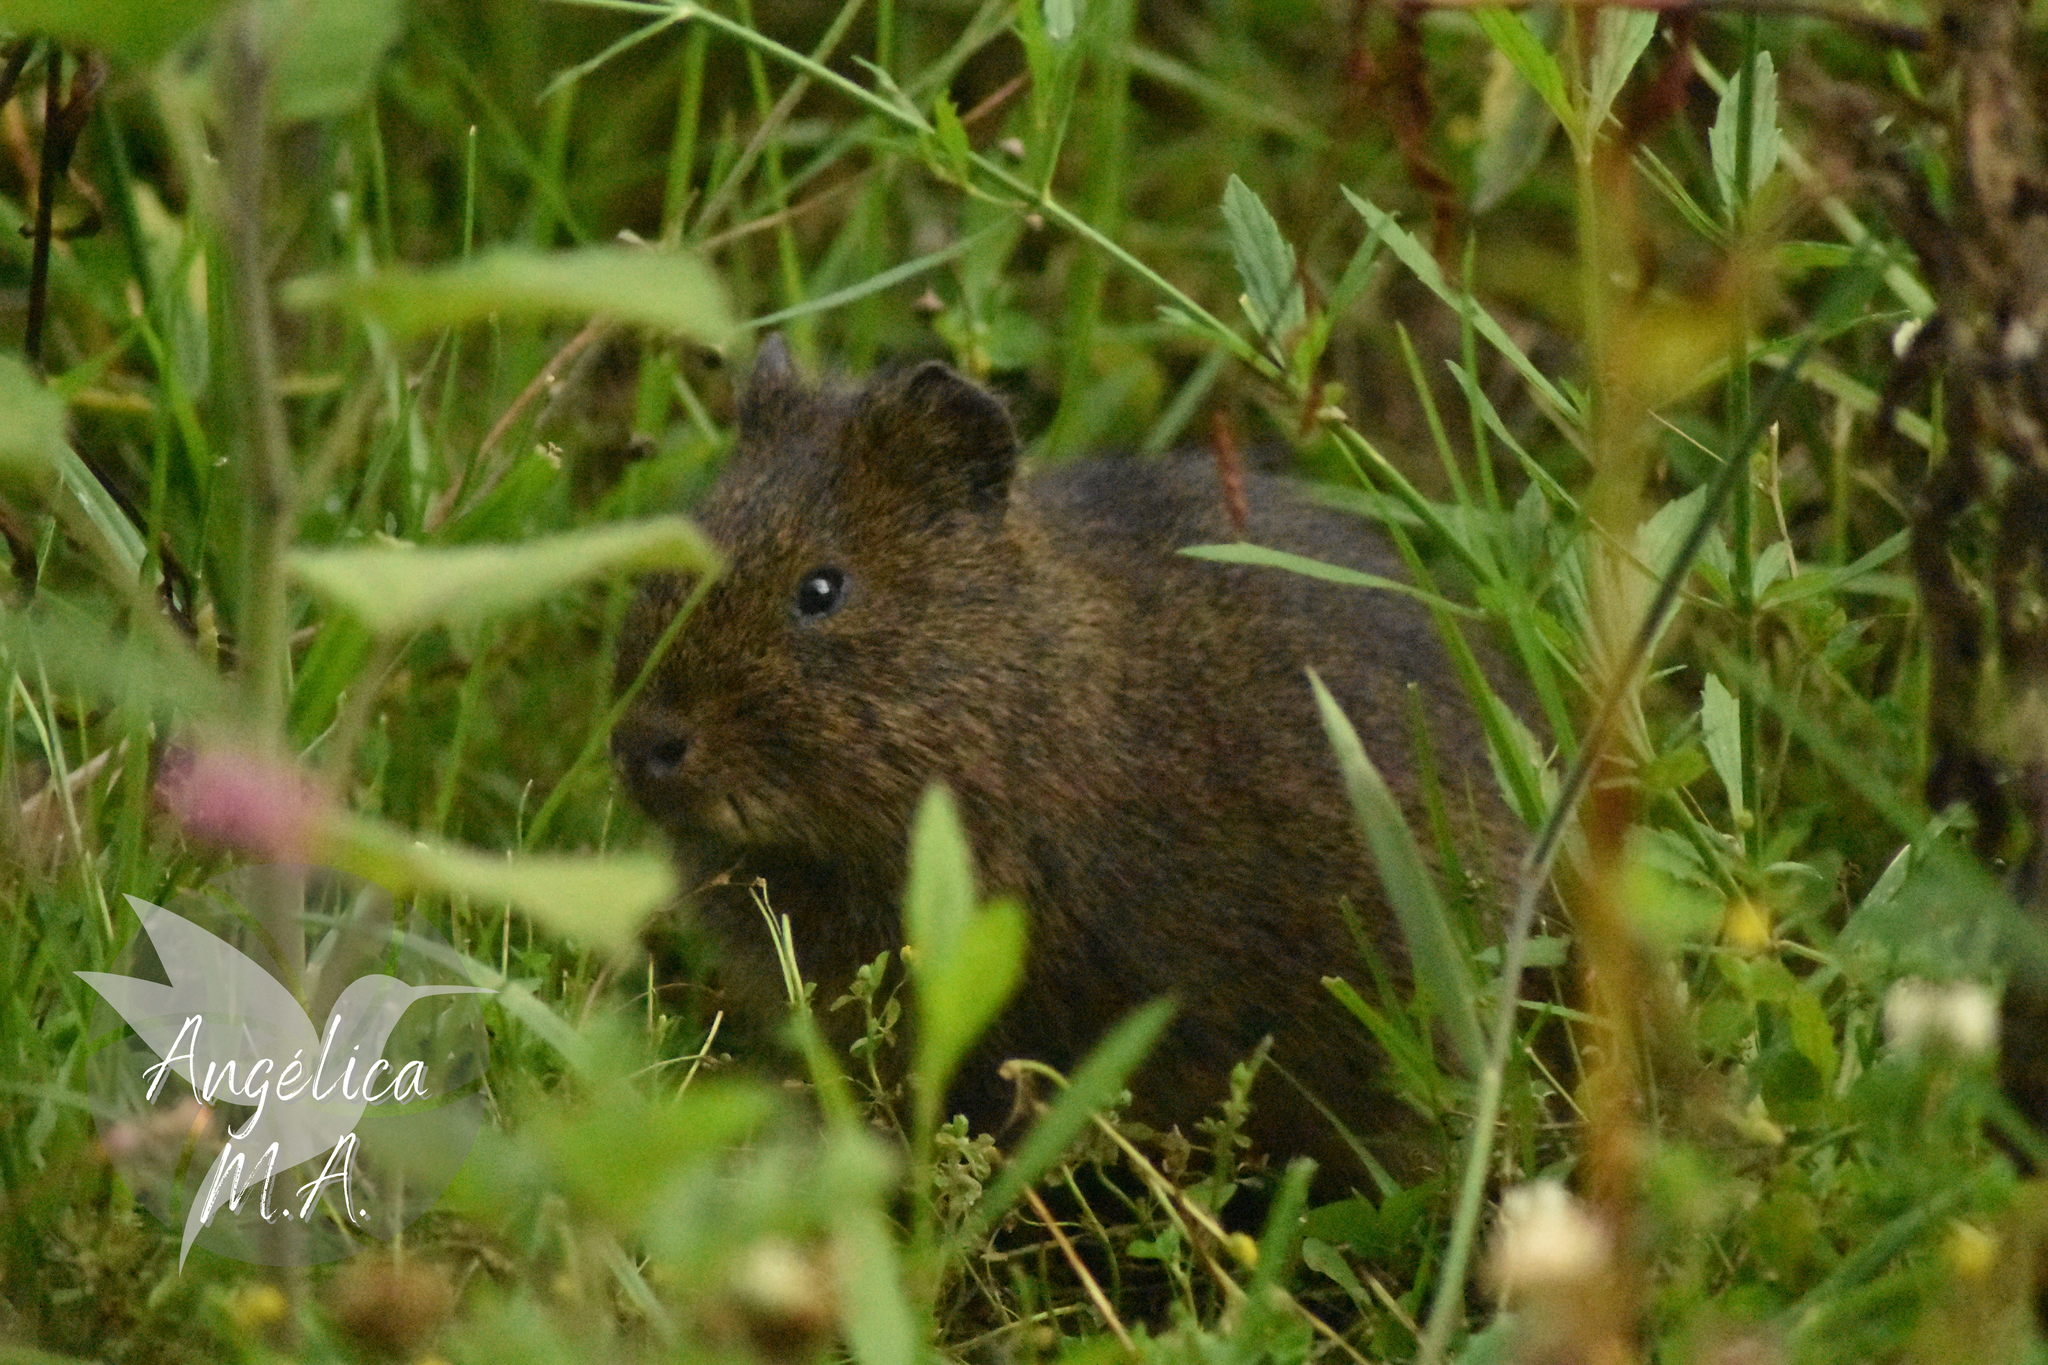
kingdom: Animalia
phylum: Chordata
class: Mammalia
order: Rodentia
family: Caviidae
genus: Cavia
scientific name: Cavia aperea
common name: Brazilian guinea pig
